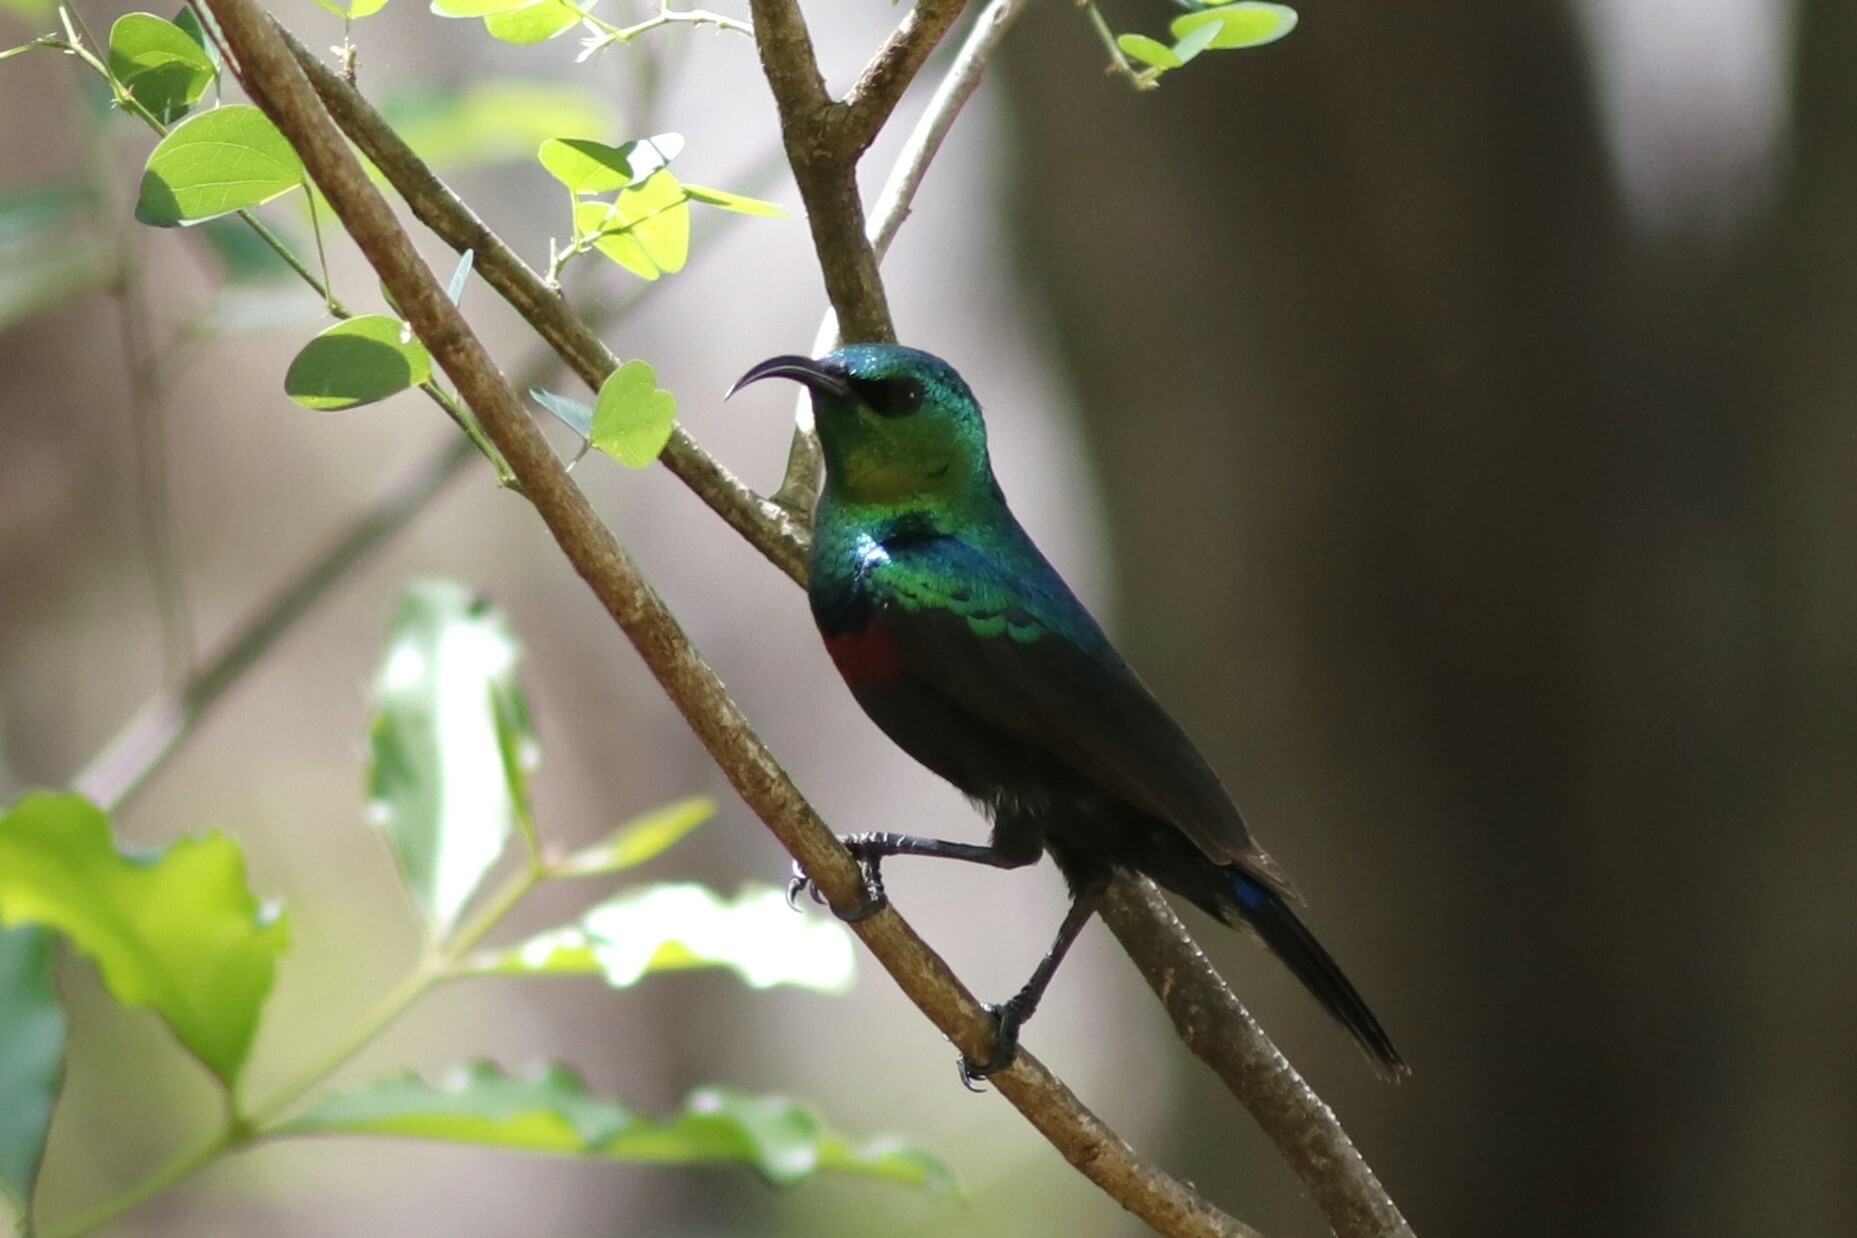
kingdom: Animalia
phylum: Chordata
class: Aves
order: Passeriformes
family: Nectariniidae
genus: Cinnyris
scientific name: Cinnyris mariquensis
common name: Marico sunbird
